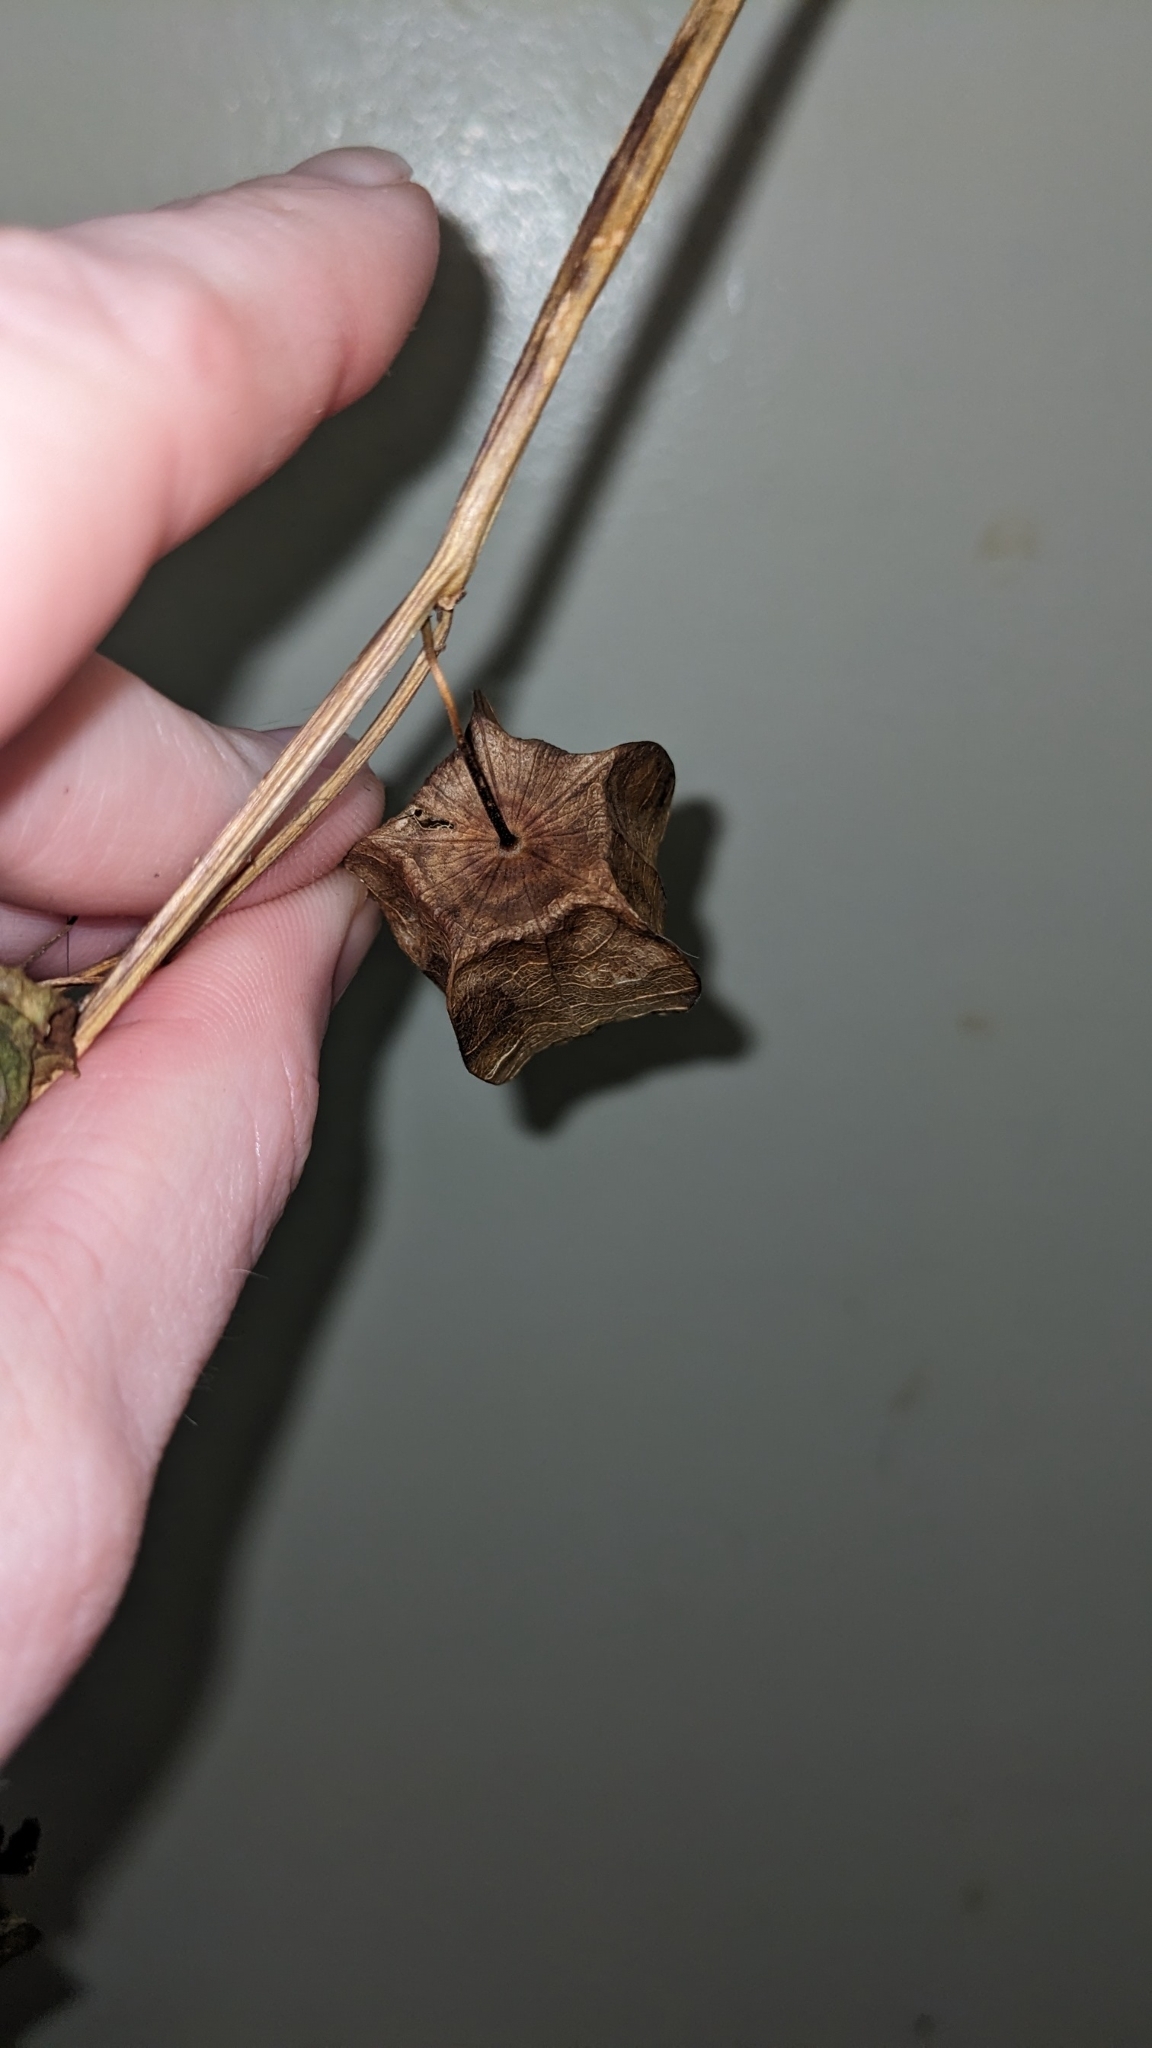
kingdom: Plantae
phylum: Tracheophyta
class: Magnoliopsida
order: Solanales
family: Solanaceae
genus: Physalis
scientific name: Physalis cordata
